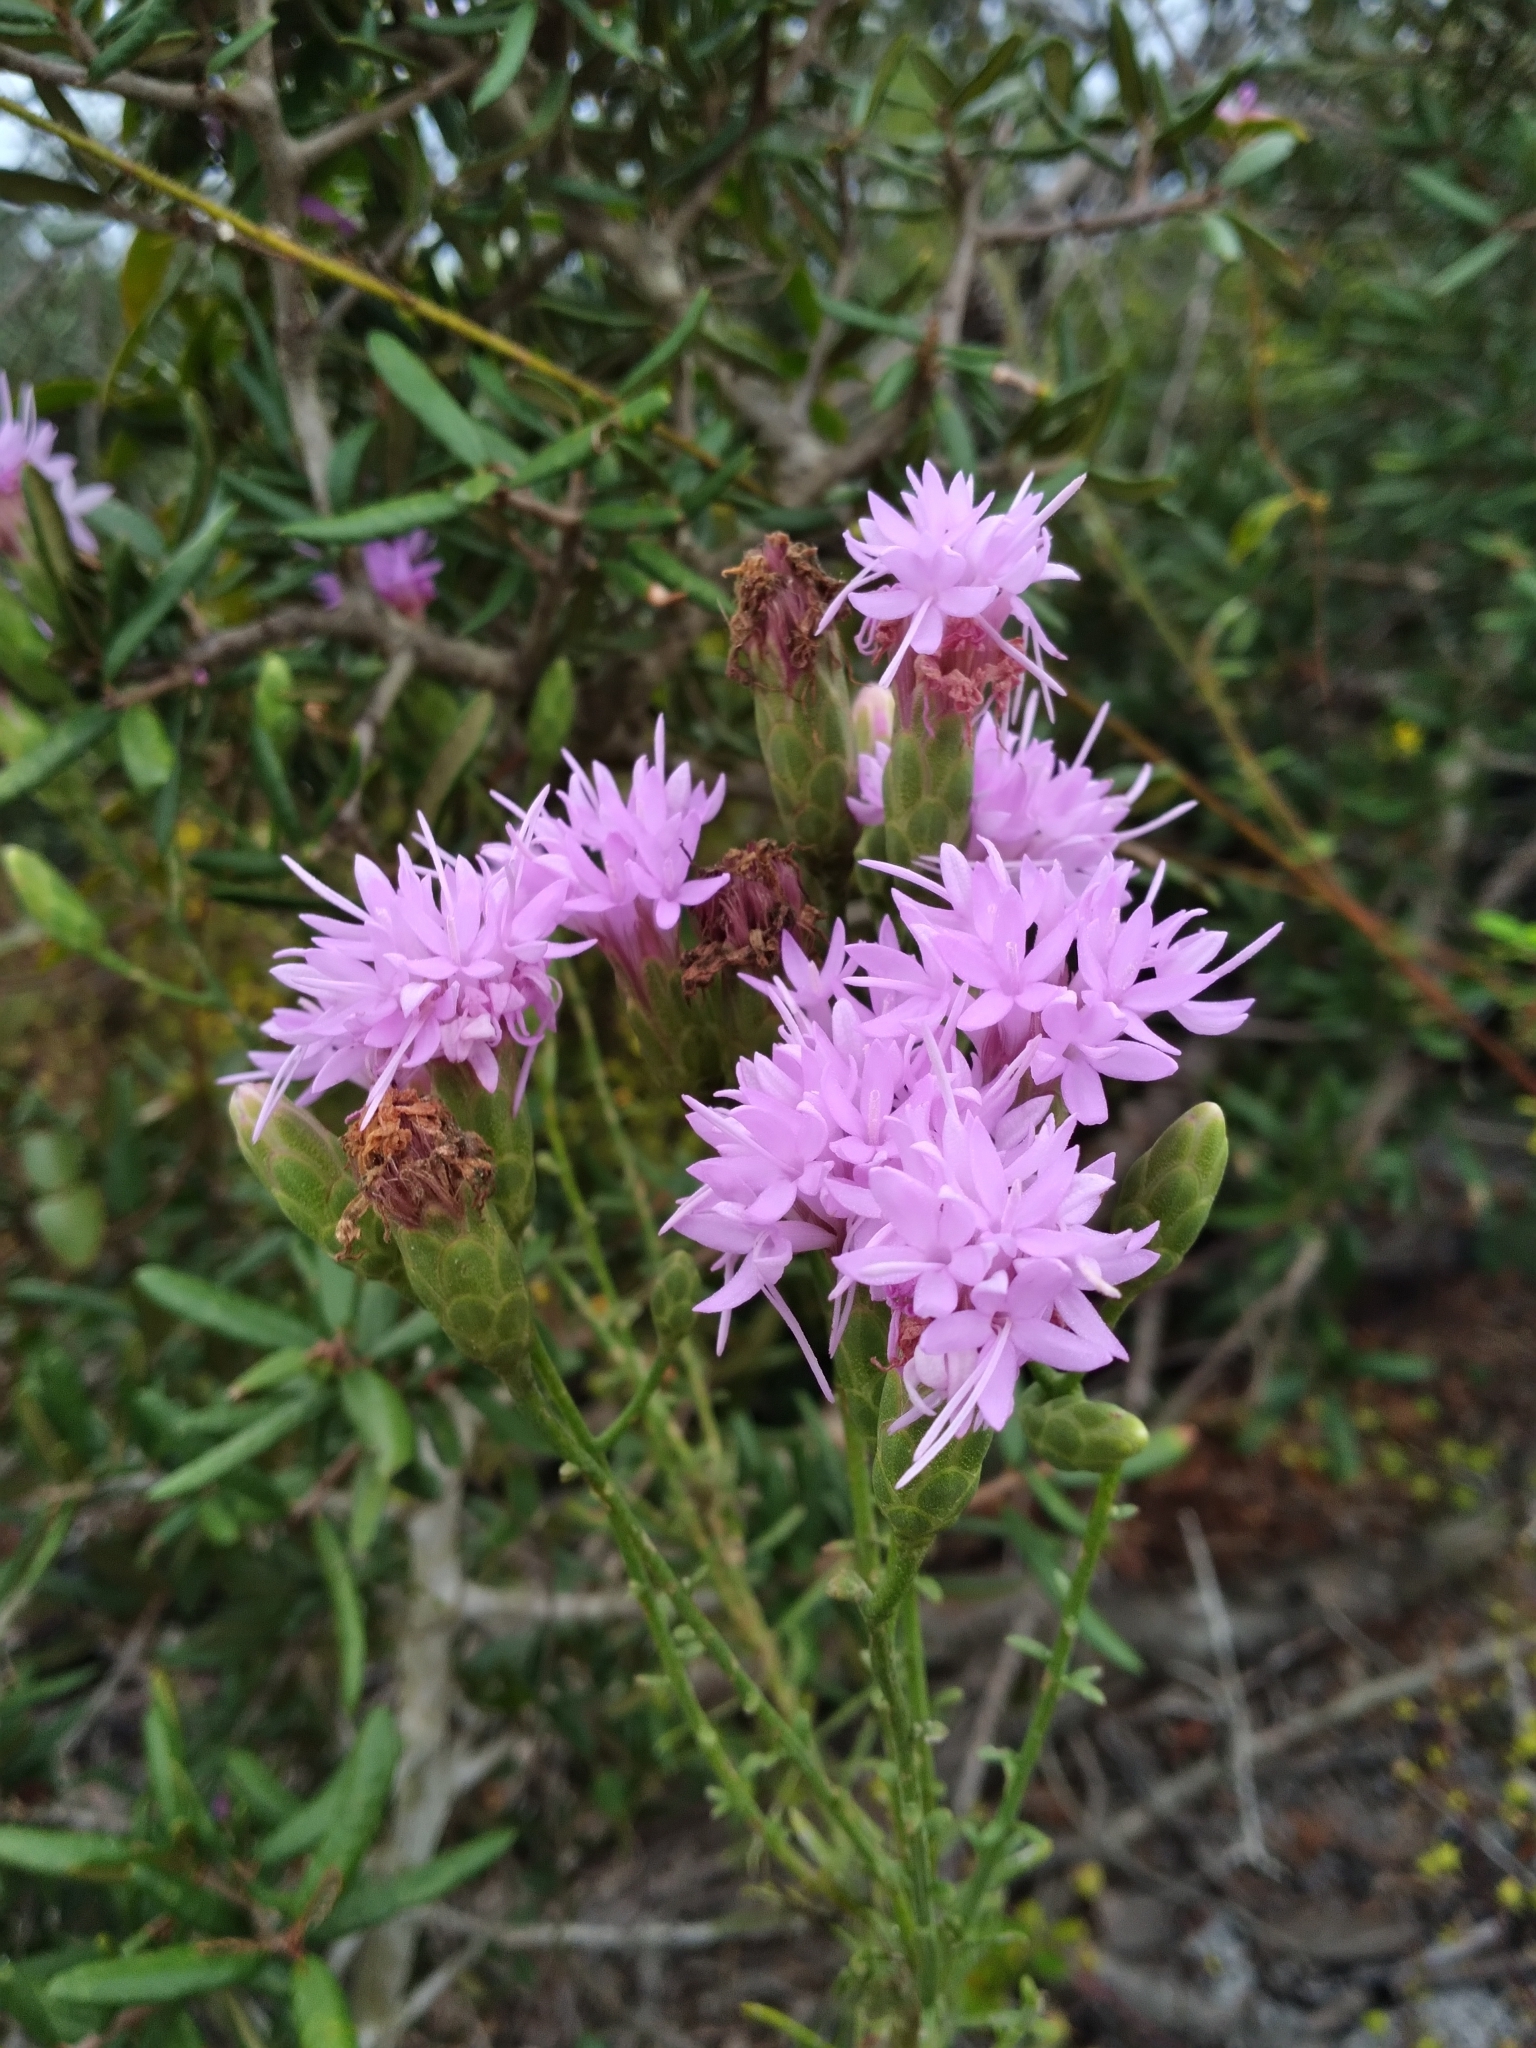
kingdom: Plantae
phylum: Tracheophyta
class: Magnoliopsida
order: Asterales
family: Asteraceae
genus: Liatris
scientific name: Liatris ohlingerae
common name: Scrub blazingstar
